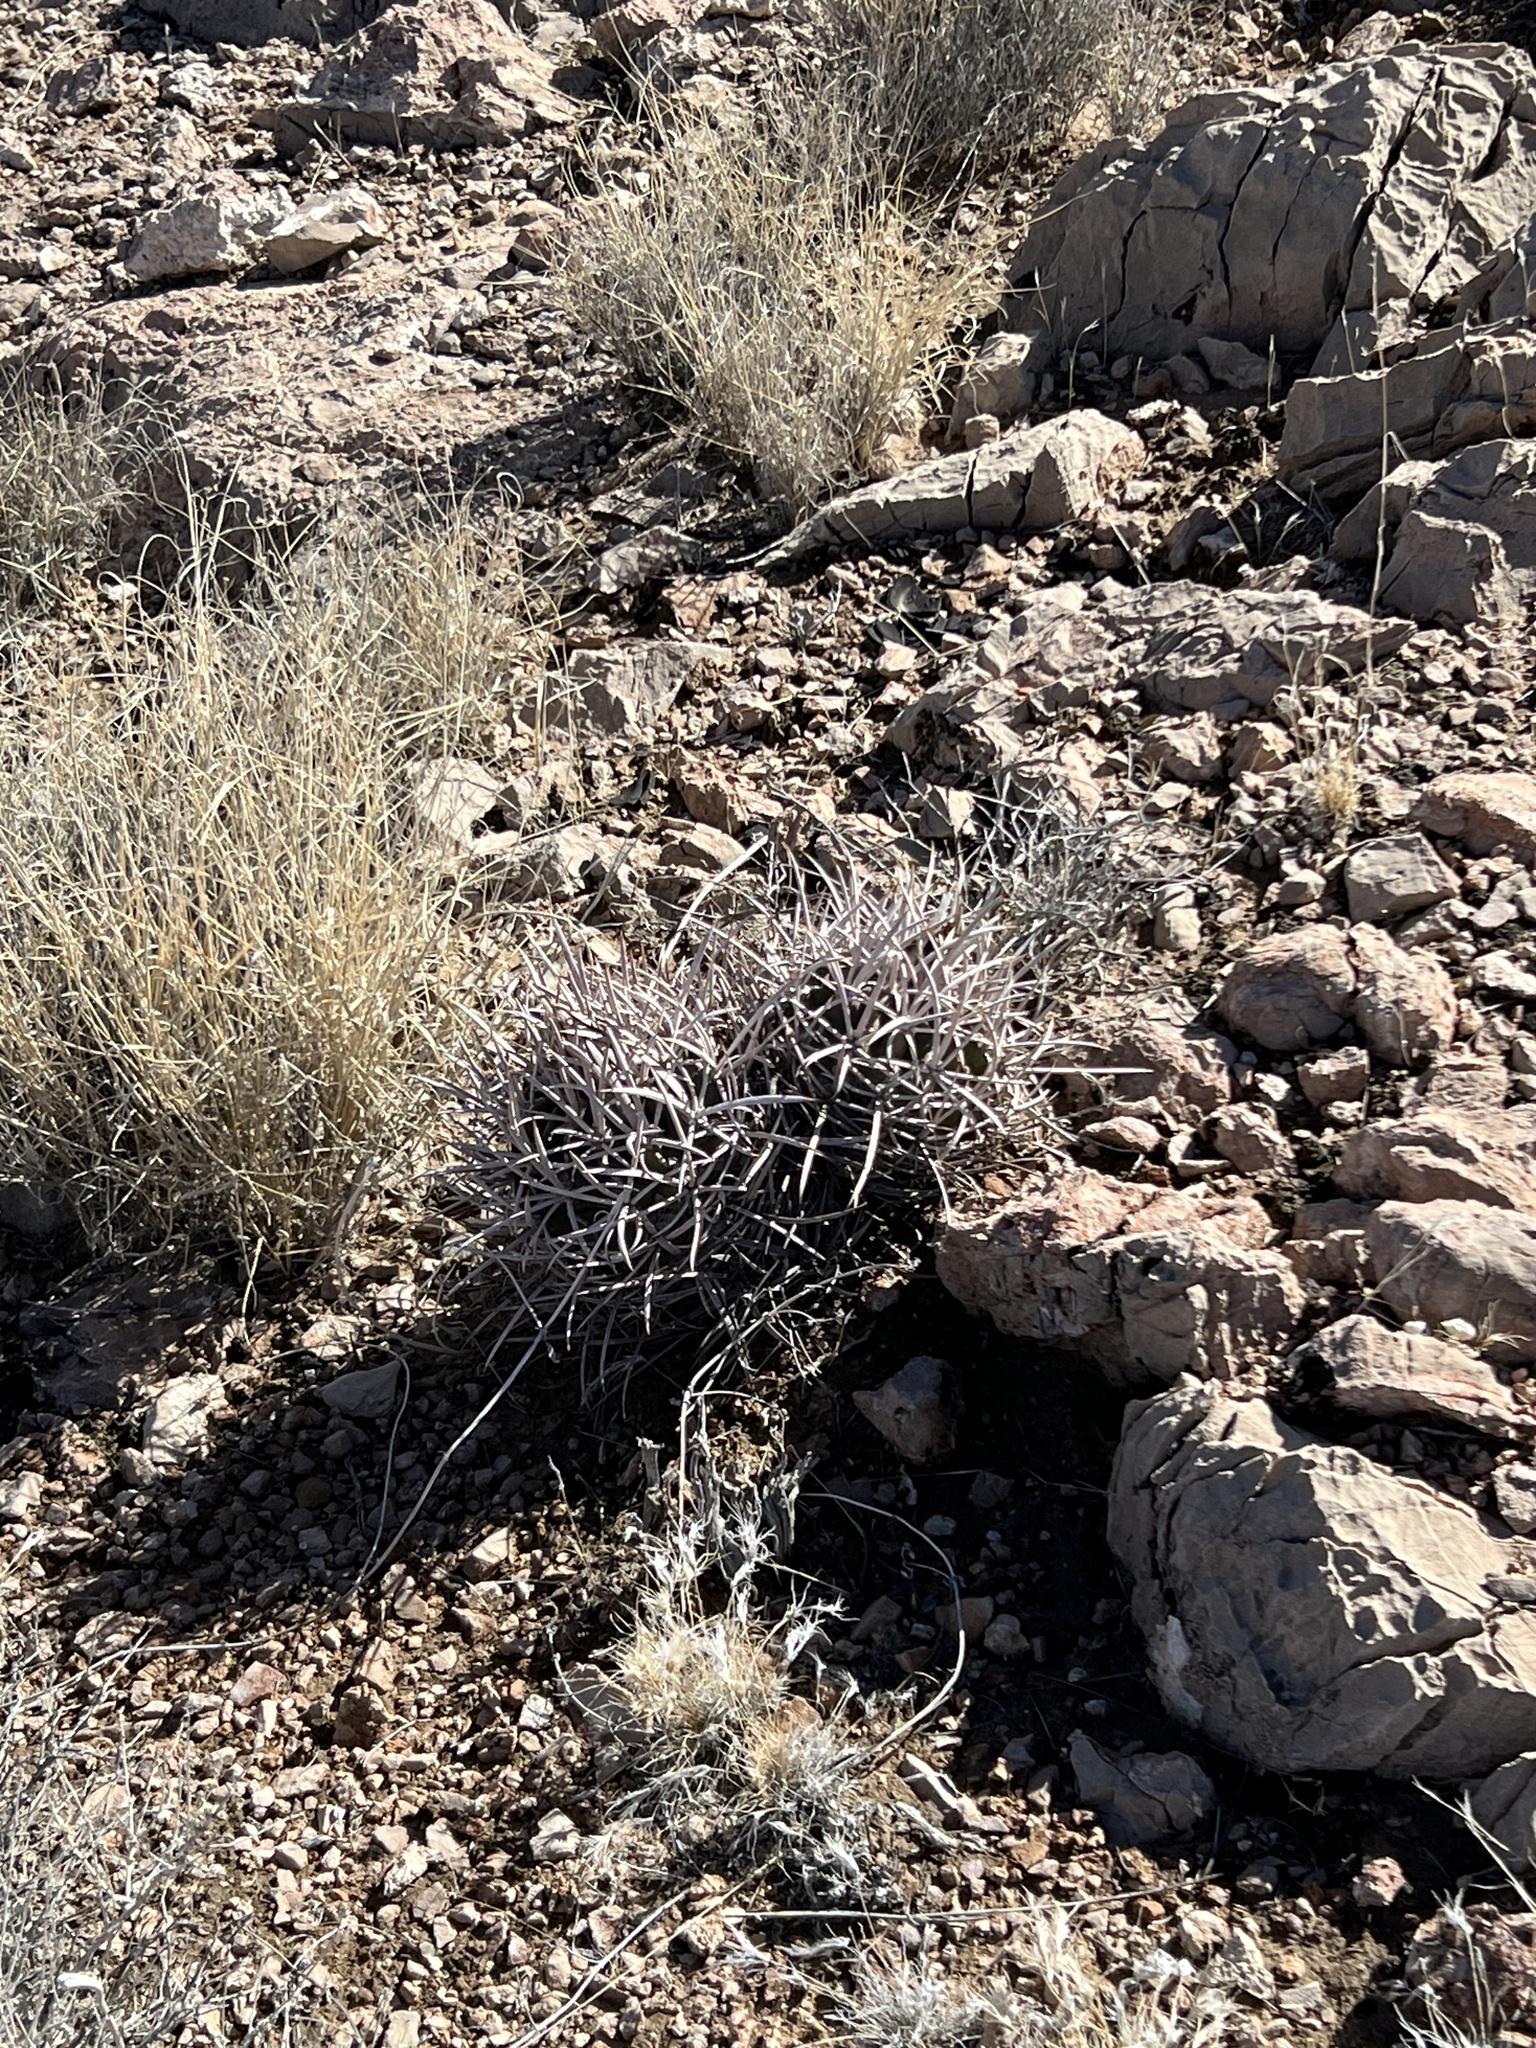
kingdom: Plantae
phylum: Tracheophyta
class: Magnoliopsida
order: Caryophyllales
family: Cactaceae
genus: Echinocactus
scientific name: Echinocactus polycephalus
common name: Cottontop cactus
